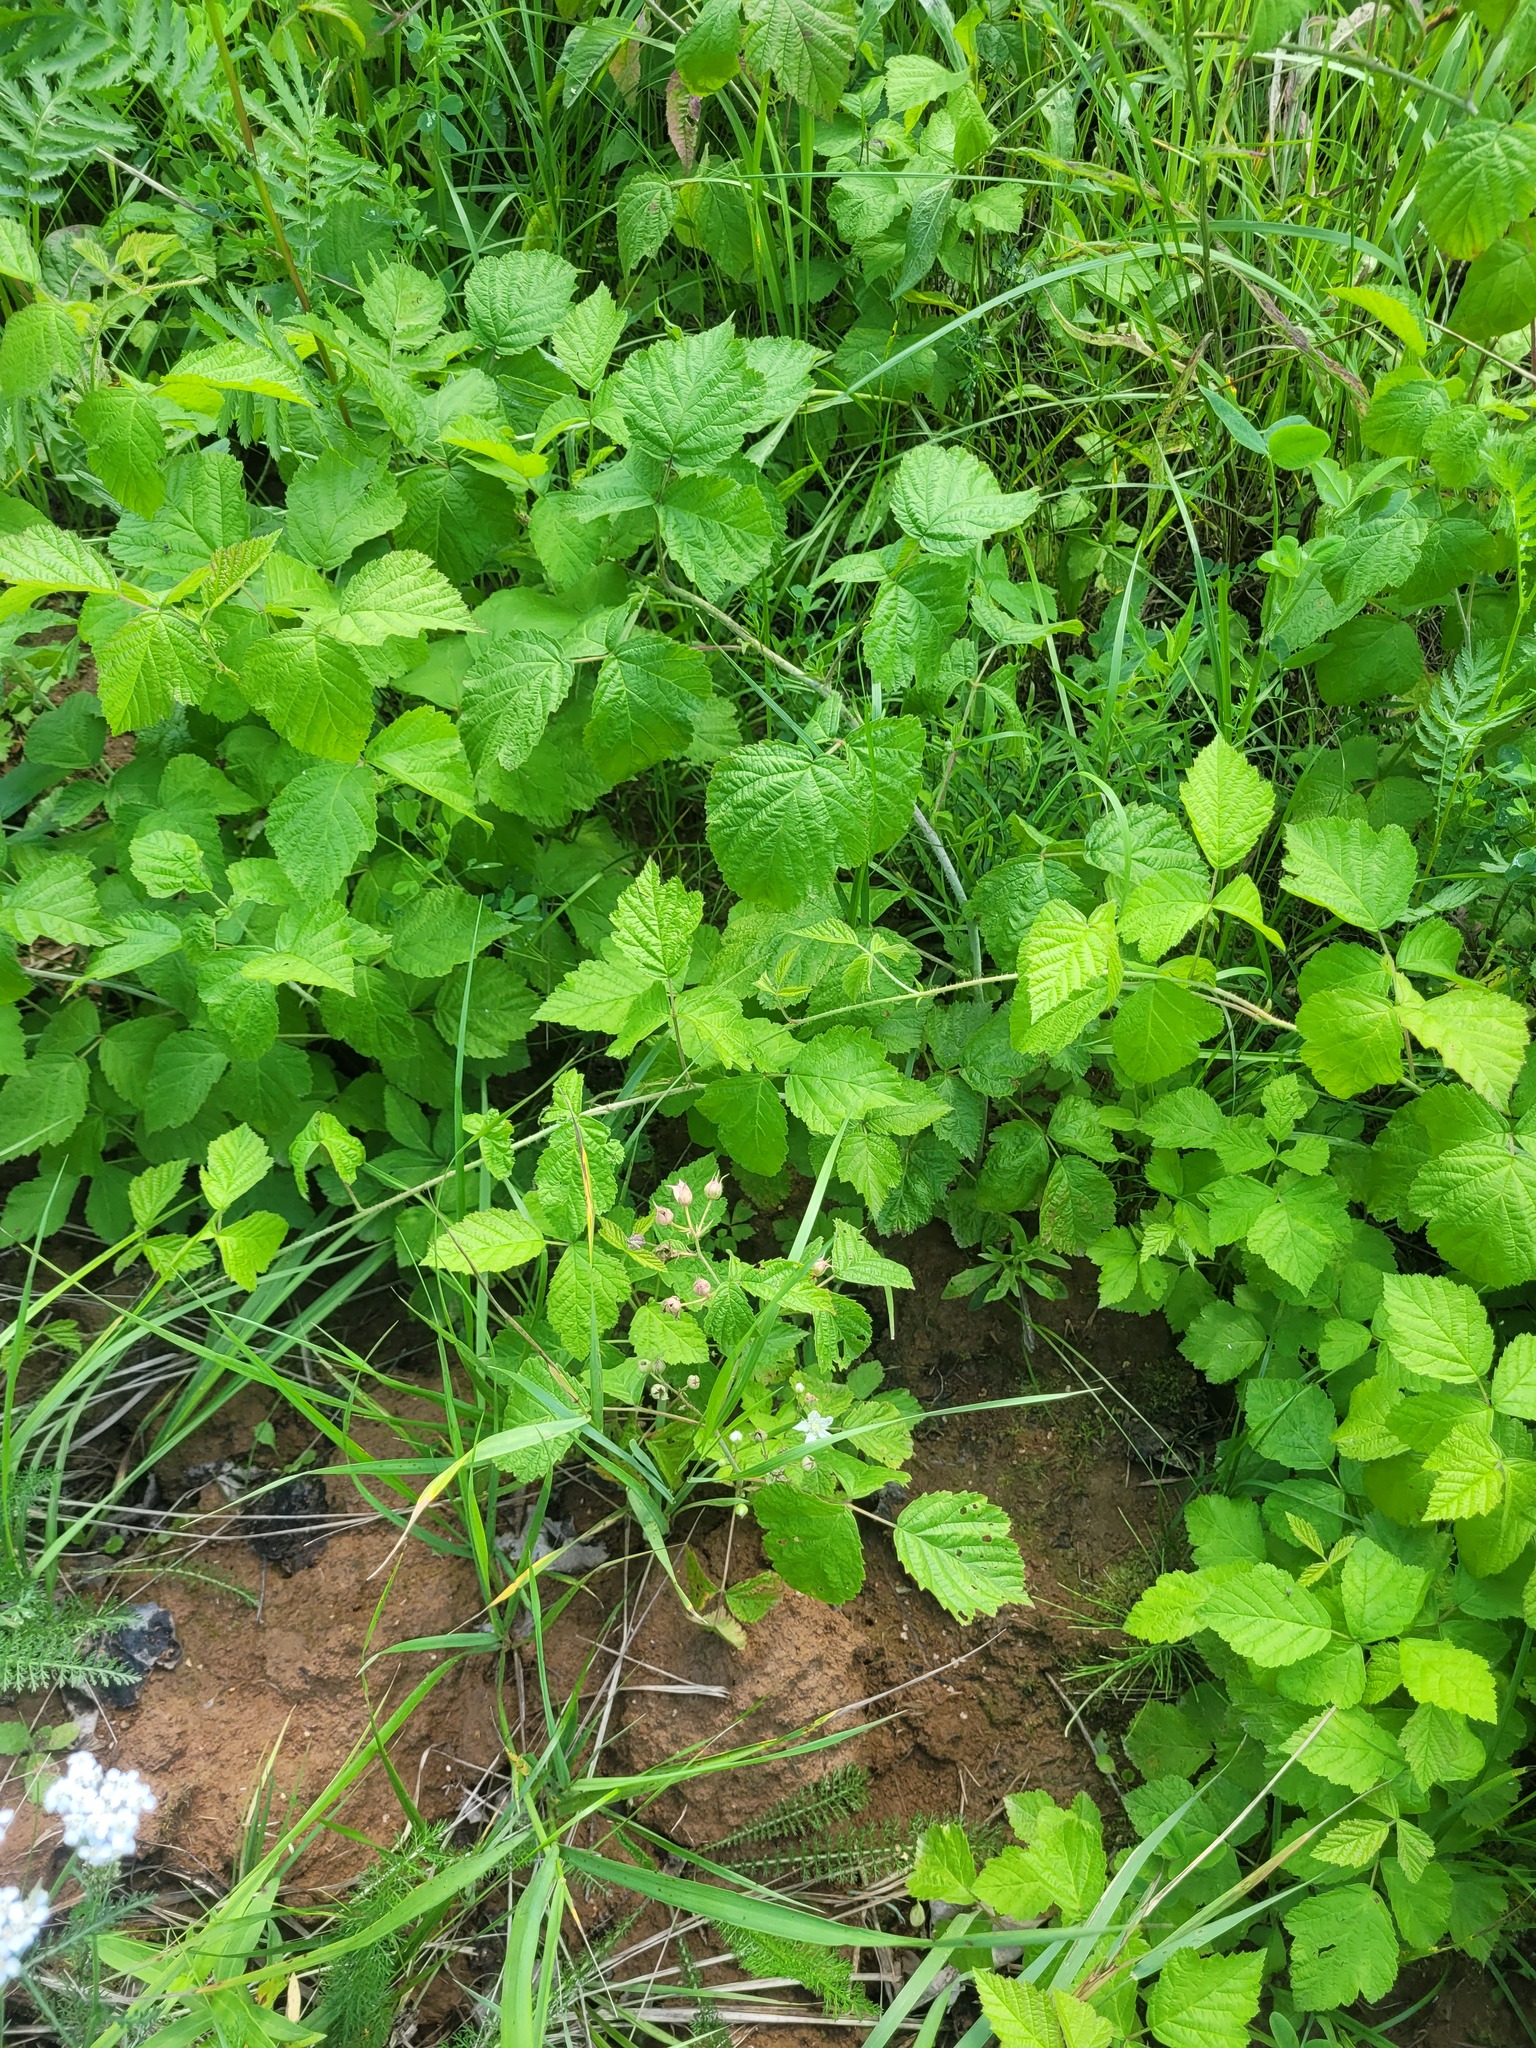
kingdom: Plantae
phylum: Tracheophyta
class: Magnoliopsida
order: Rosales
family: Rosaceae
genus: Rubus
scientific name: Rubus caesius
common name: Dewberry
